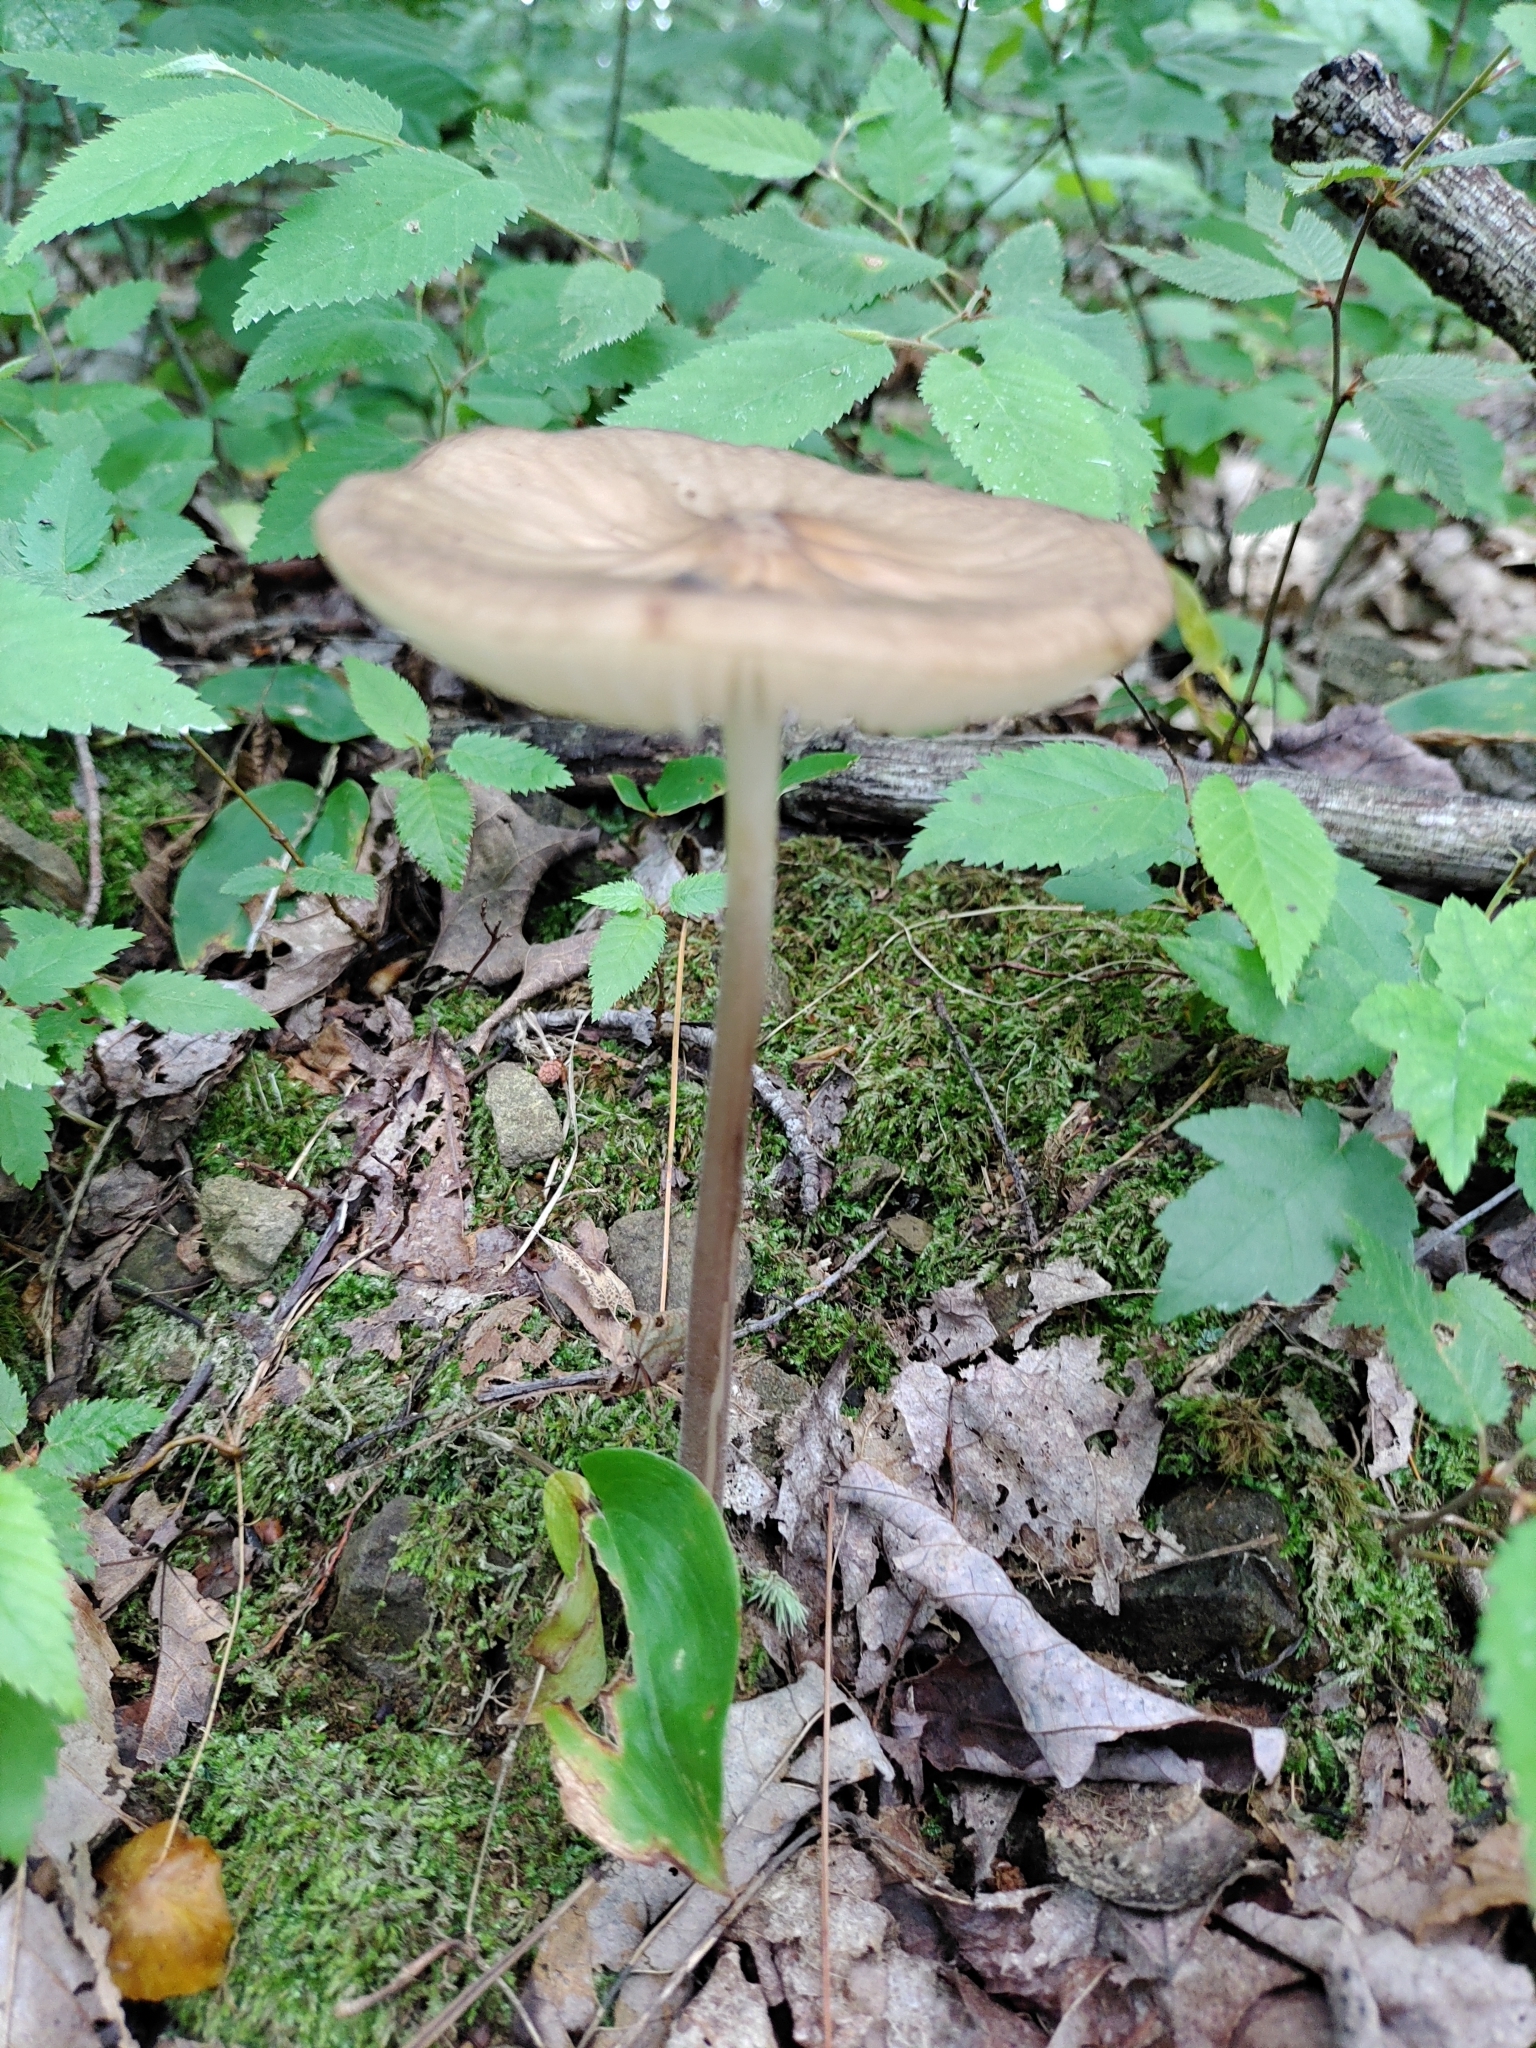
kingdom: Fungi
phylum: Basidiomycota
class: Agaricomycetes
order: Agaricales
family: Physalacriaceae
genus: Hymenopellis
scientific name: Hymenopellis furfuracea
